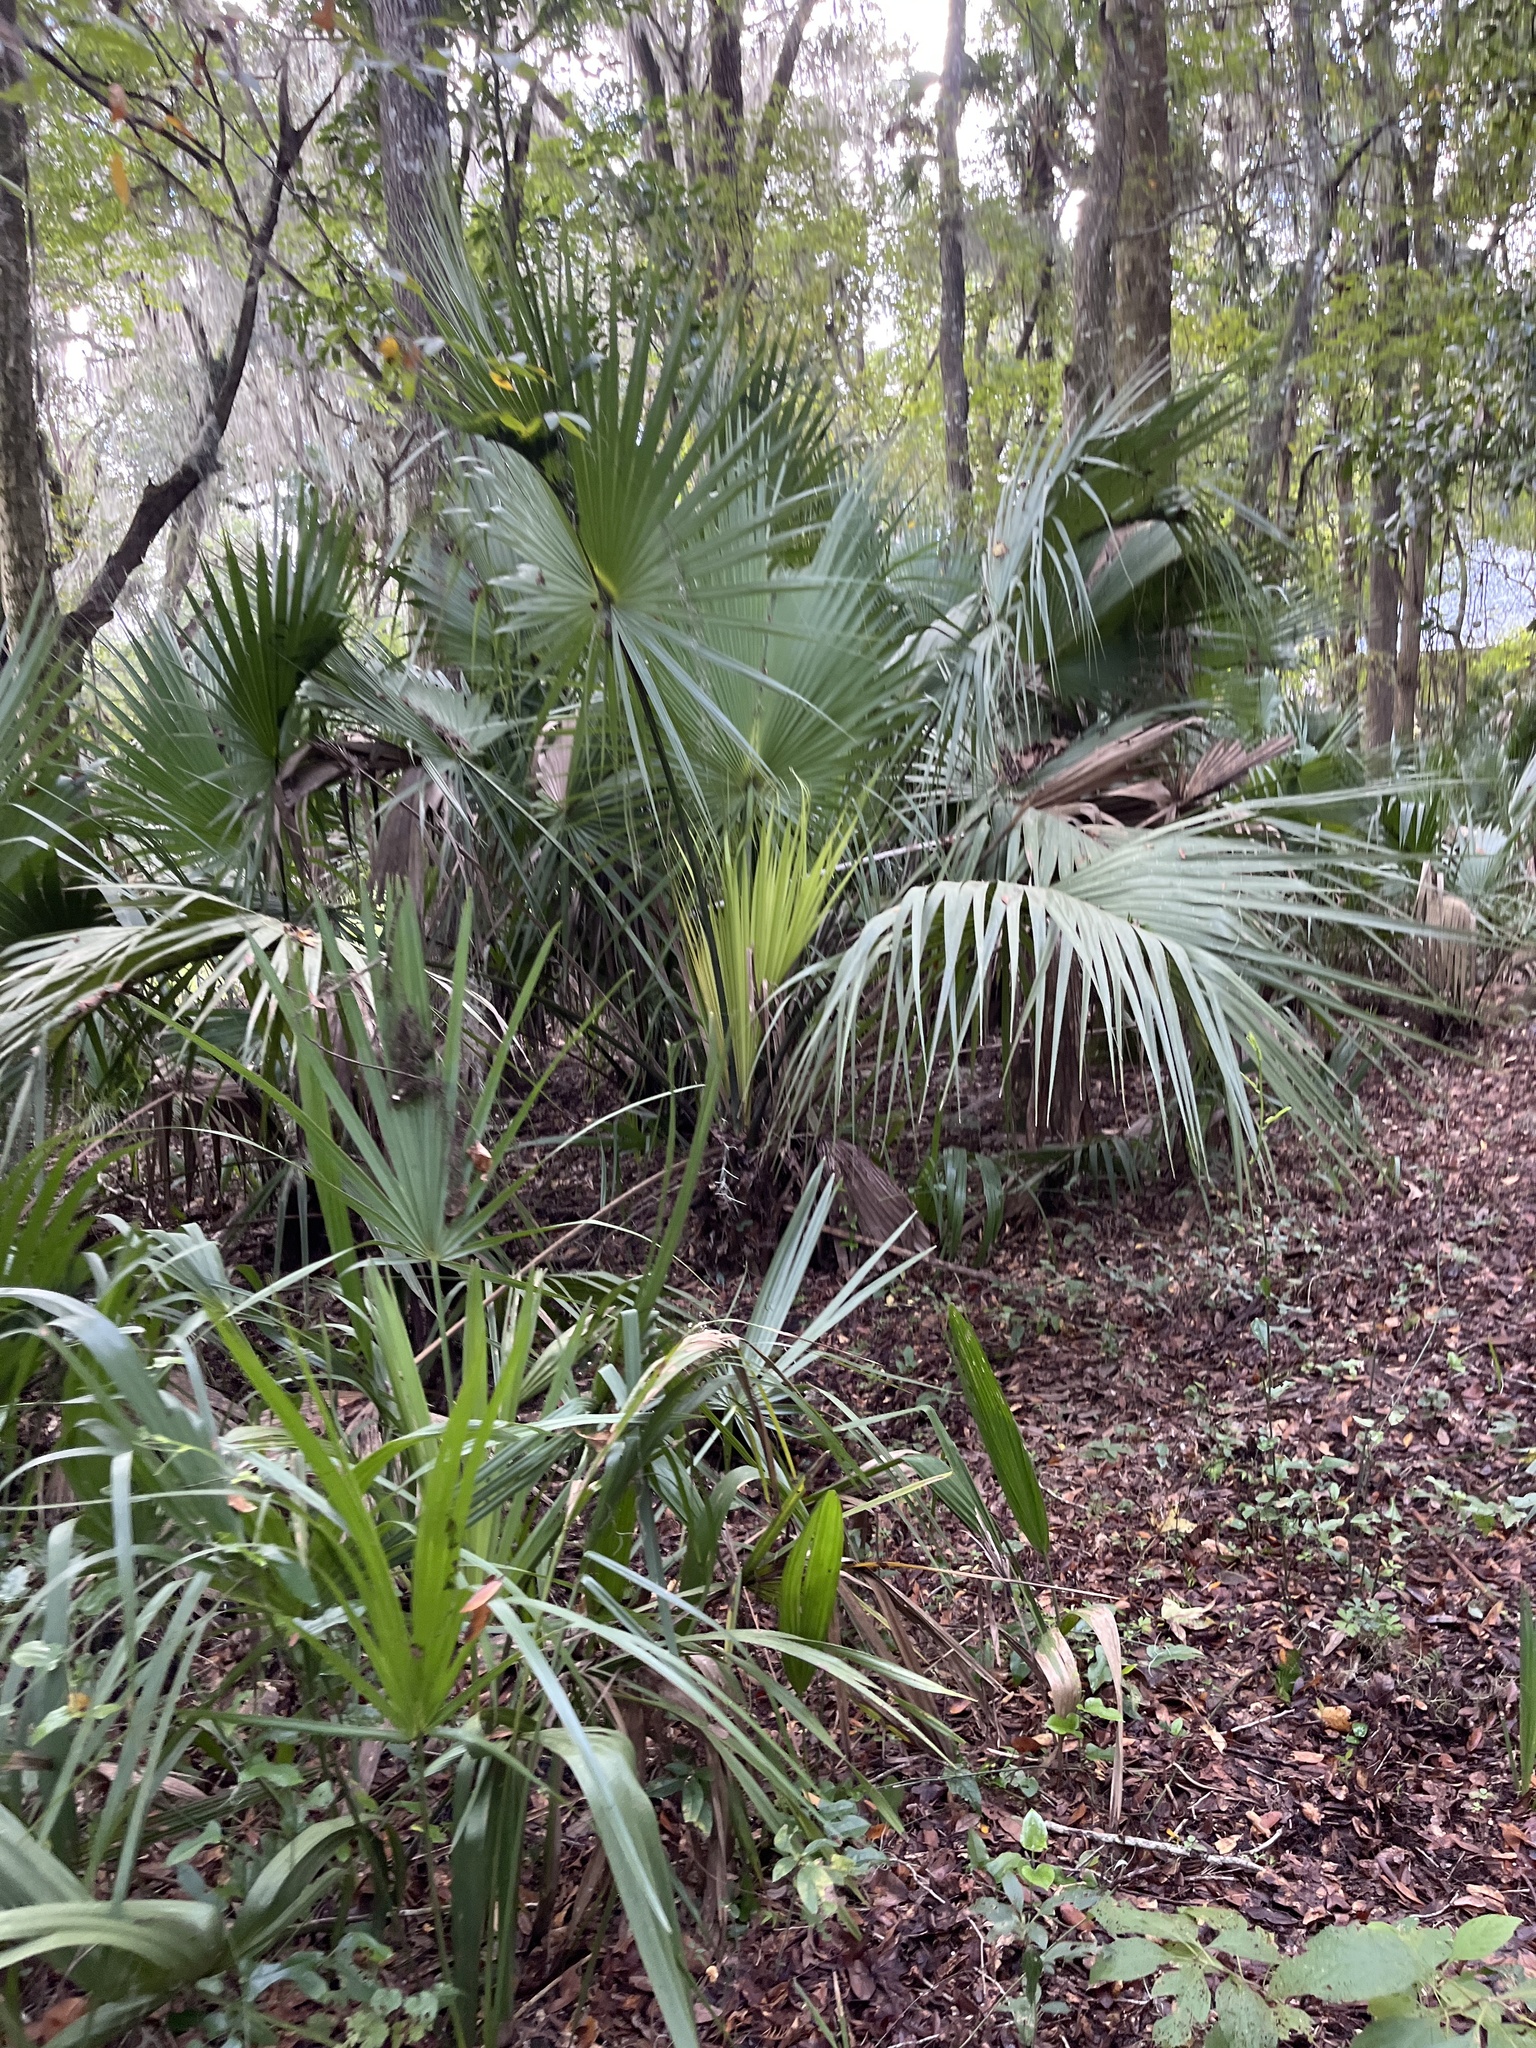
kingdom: Plantae
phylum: Tracheophyta
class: Liliopsida
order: Arecales
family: Arecaceae
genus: Sabal
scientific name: Sabal palmetto
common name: Blue palmetto
